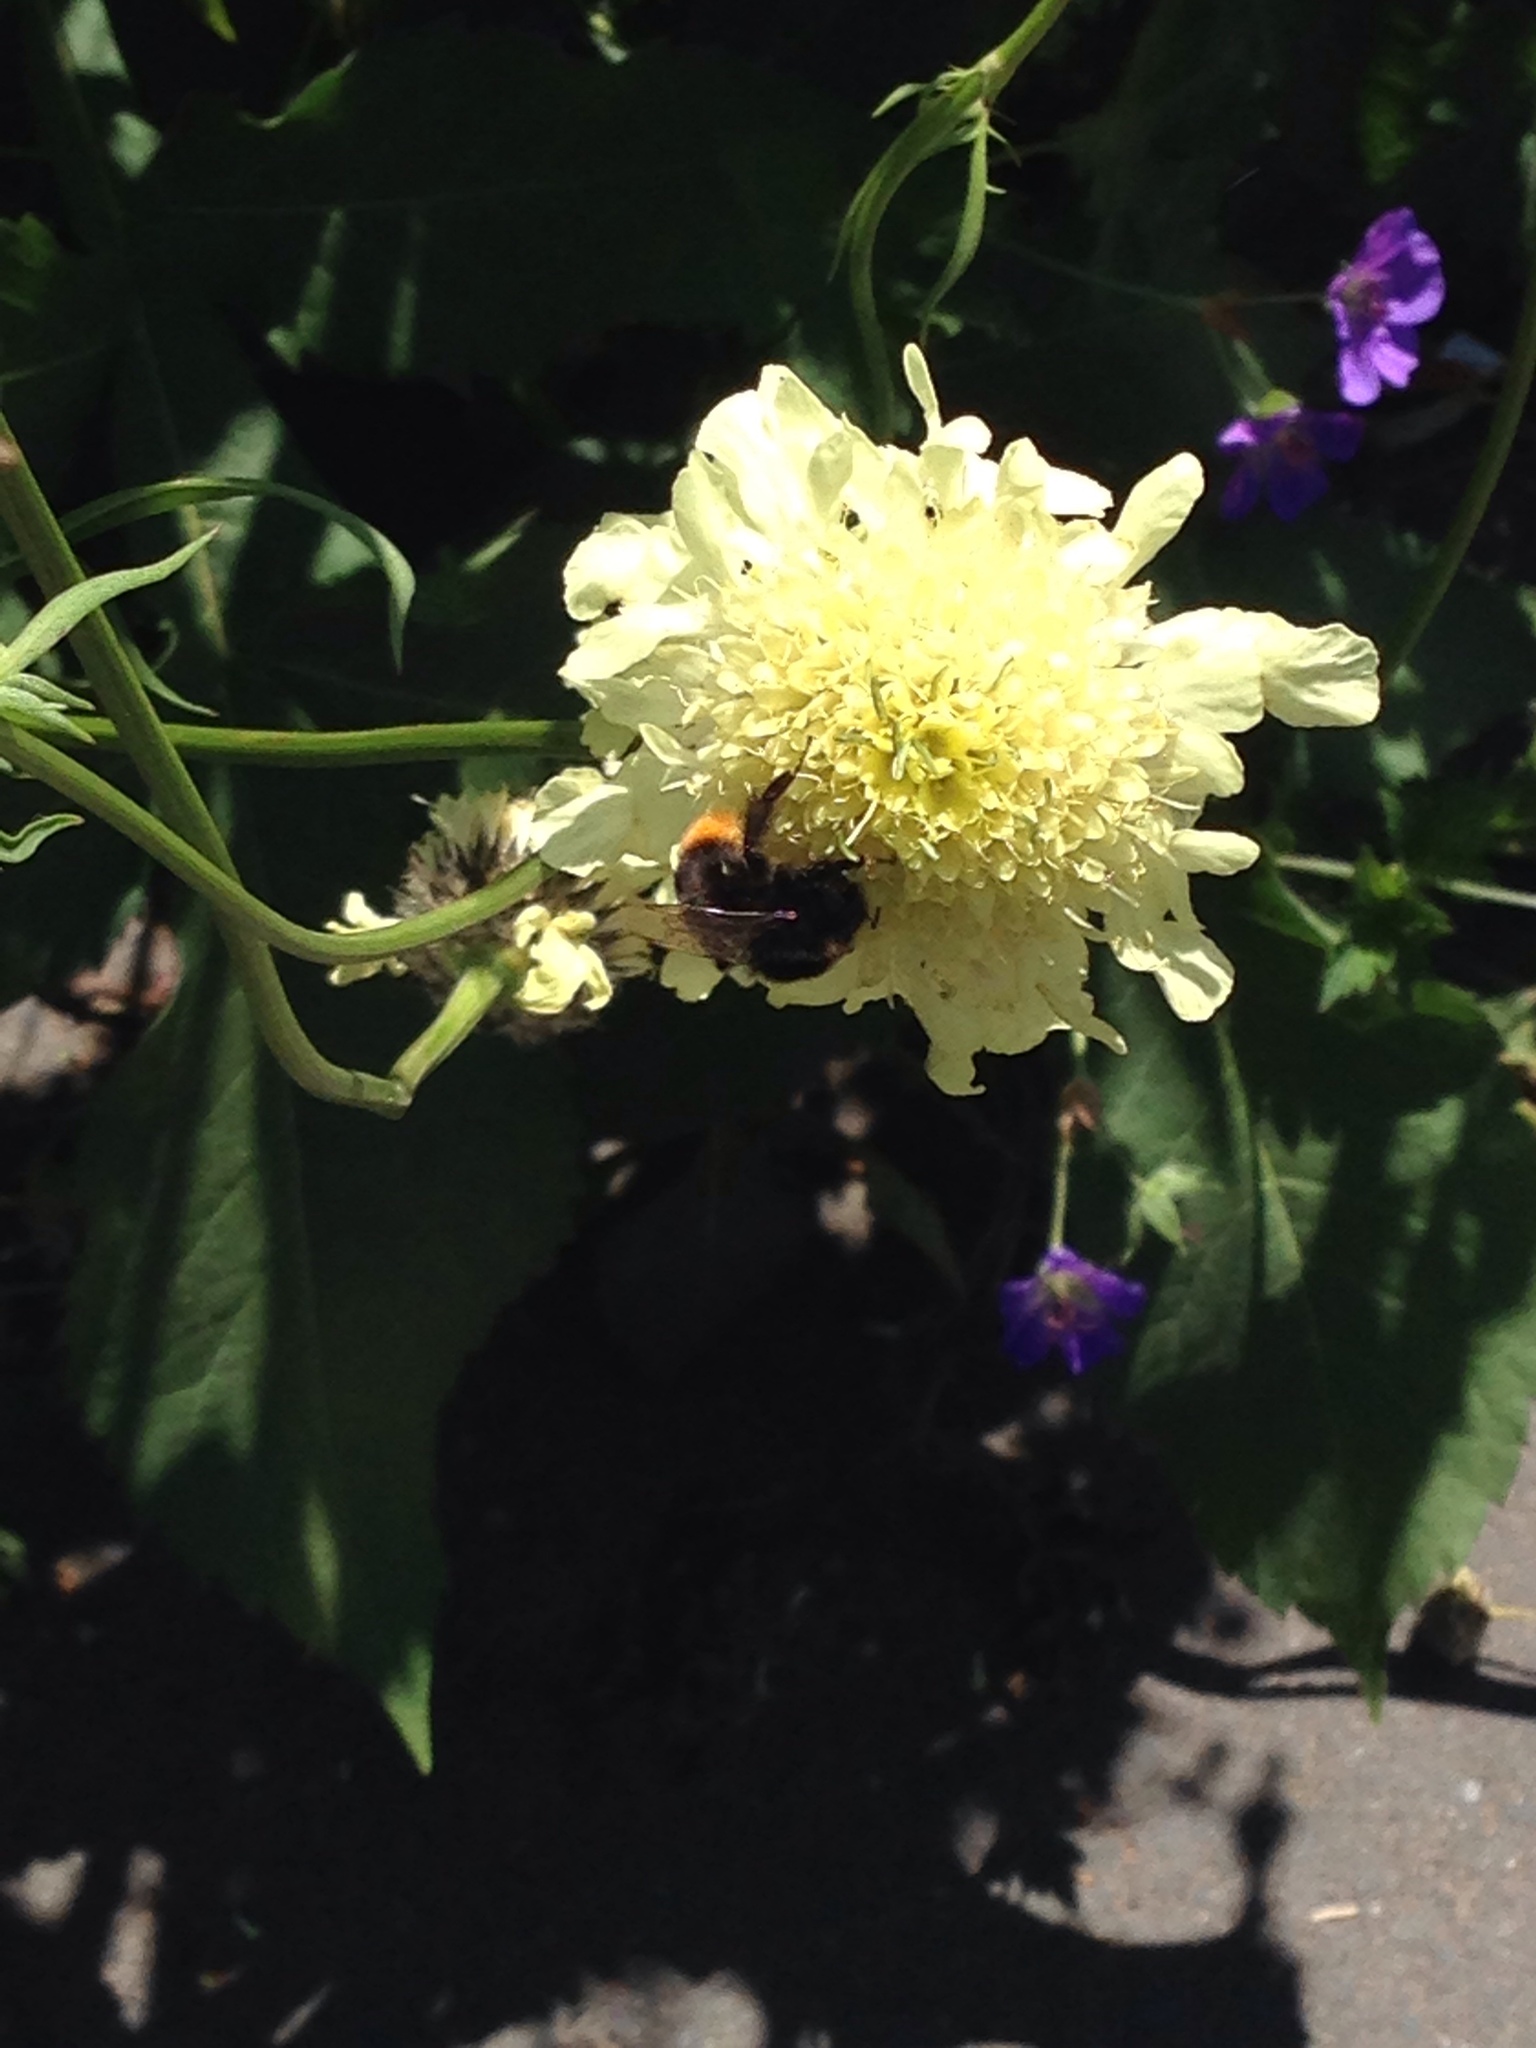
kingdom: Animalia
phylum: Arthropoda
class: Insecta
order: Hymenoptera
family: Apidae
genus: Bombus
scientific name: Bombus
